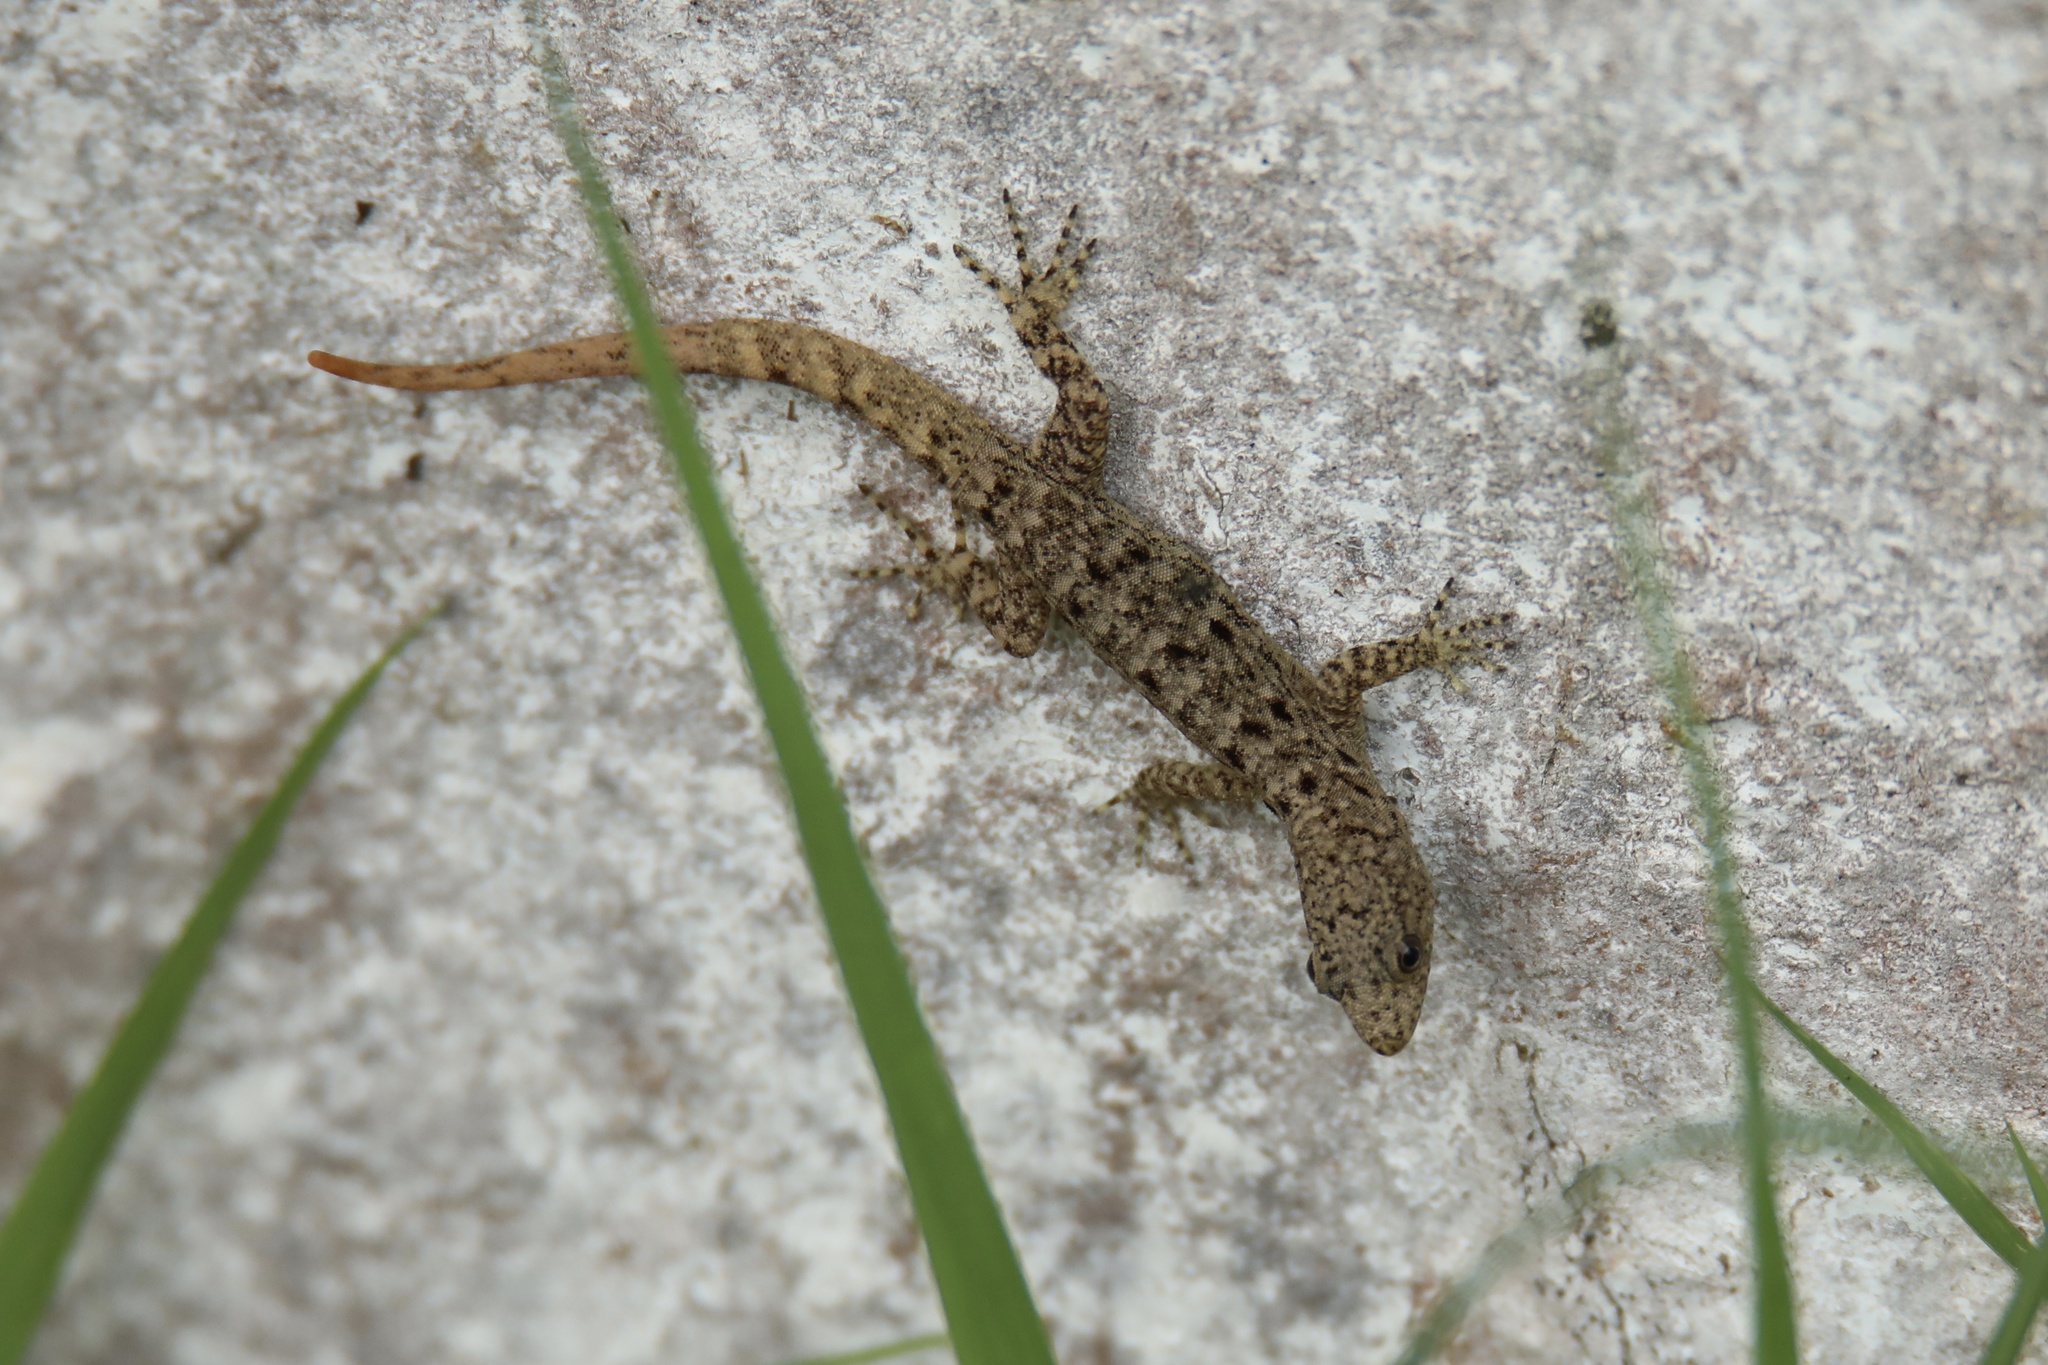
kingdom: Animalia
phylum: Chordata
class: Squamata
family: Sphaerodactylidae
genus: Gonatodes
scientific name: Gonatodes albogularis
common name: Yellow-headed gecko
